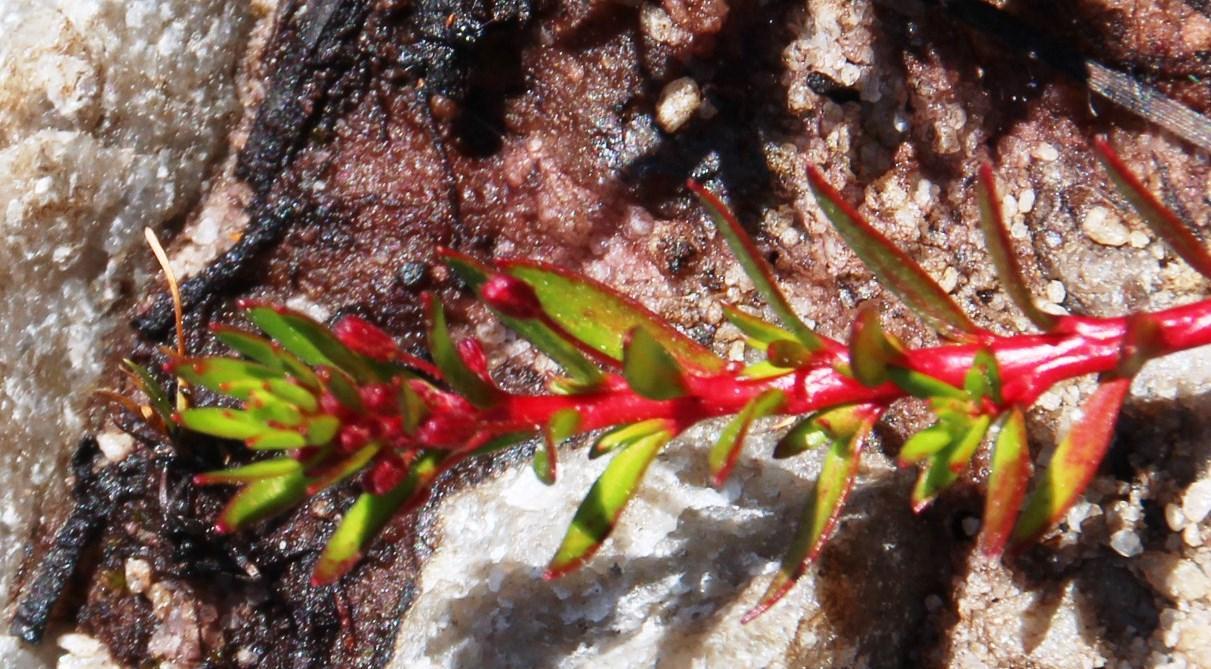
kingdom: Plantae
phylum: Tracheophyta
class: Magnoliopsida
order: Saxifragales
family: Haloragaceae
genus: Laurembergia
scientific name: Laurembergia repens
